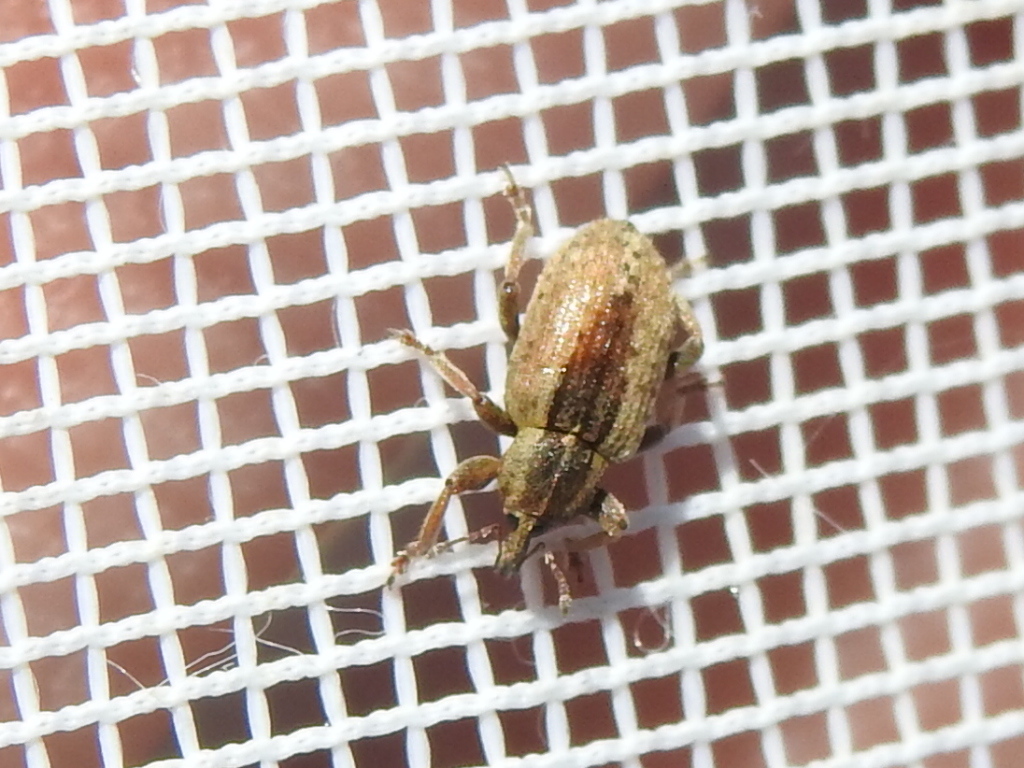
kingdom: Animalia
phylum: Arthropoda
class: Insecta
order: Coleoptera
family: Curculionidae
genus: Hypera
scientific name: Hypera postica
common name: Weevil
